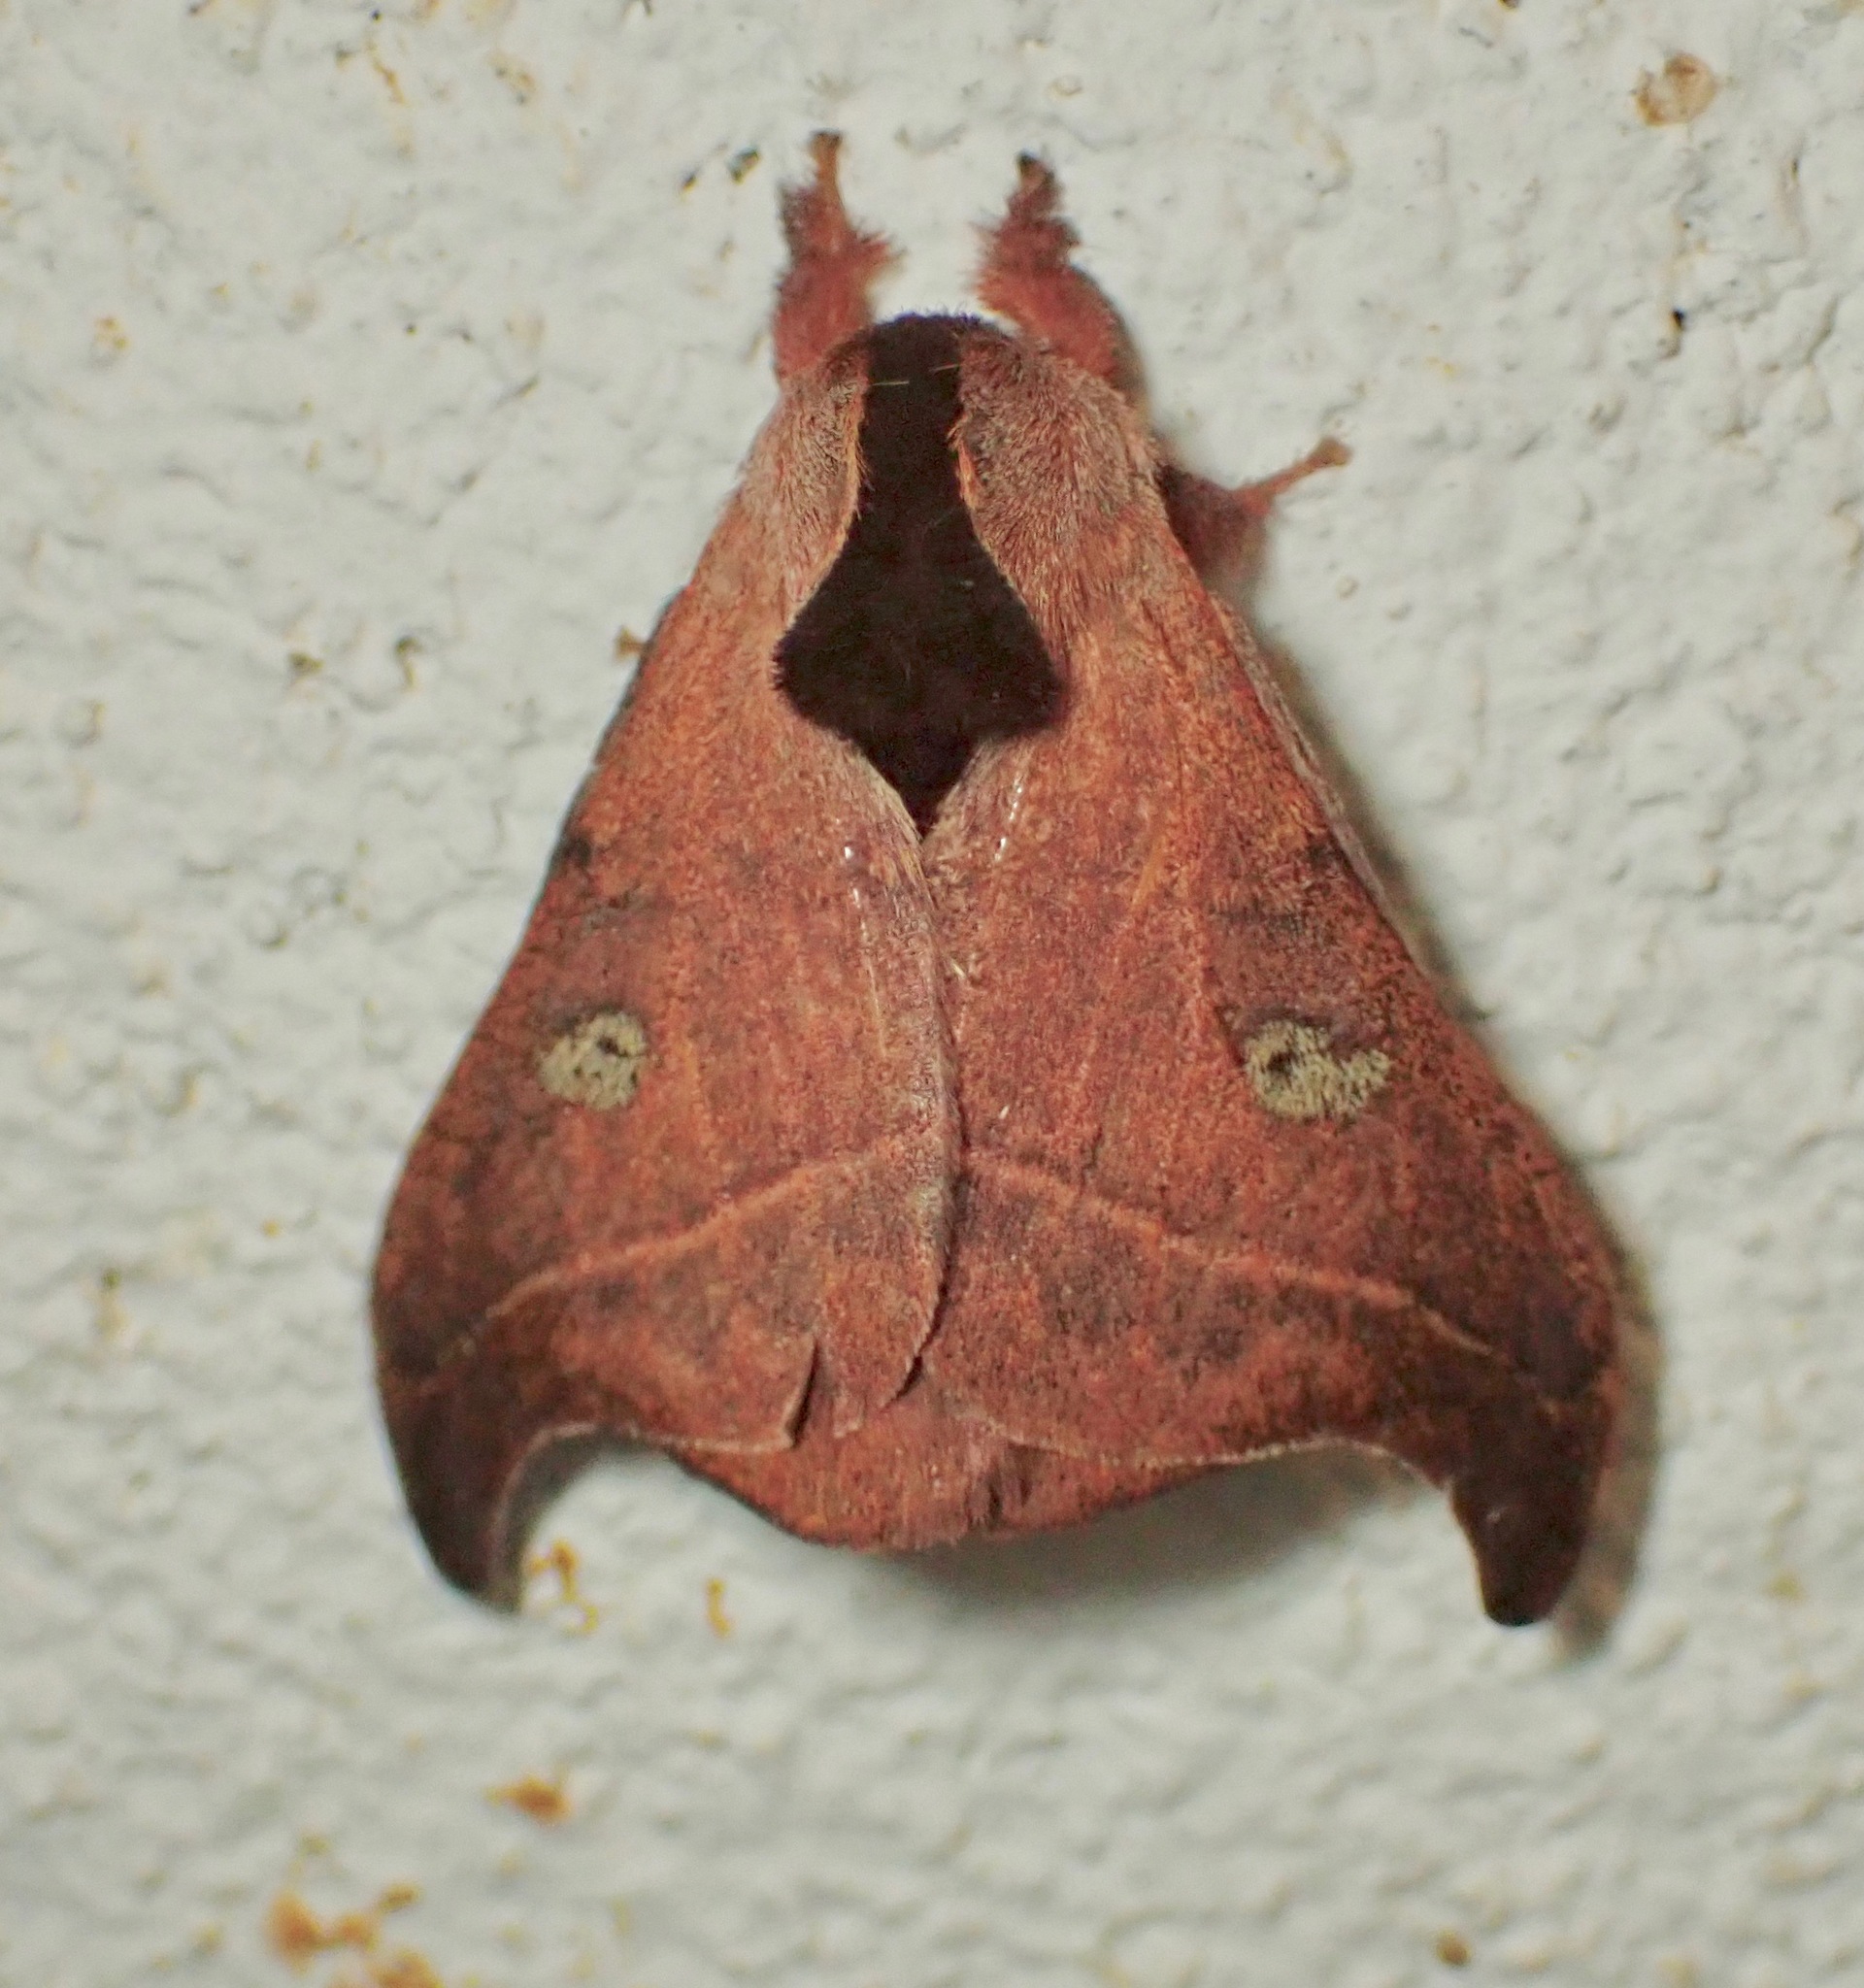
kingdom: Animalia
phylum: Arthropoda
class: Insecta
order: Lepidoptera
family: Saturniidae
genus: Hylesia
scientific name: Hylesia nanus
